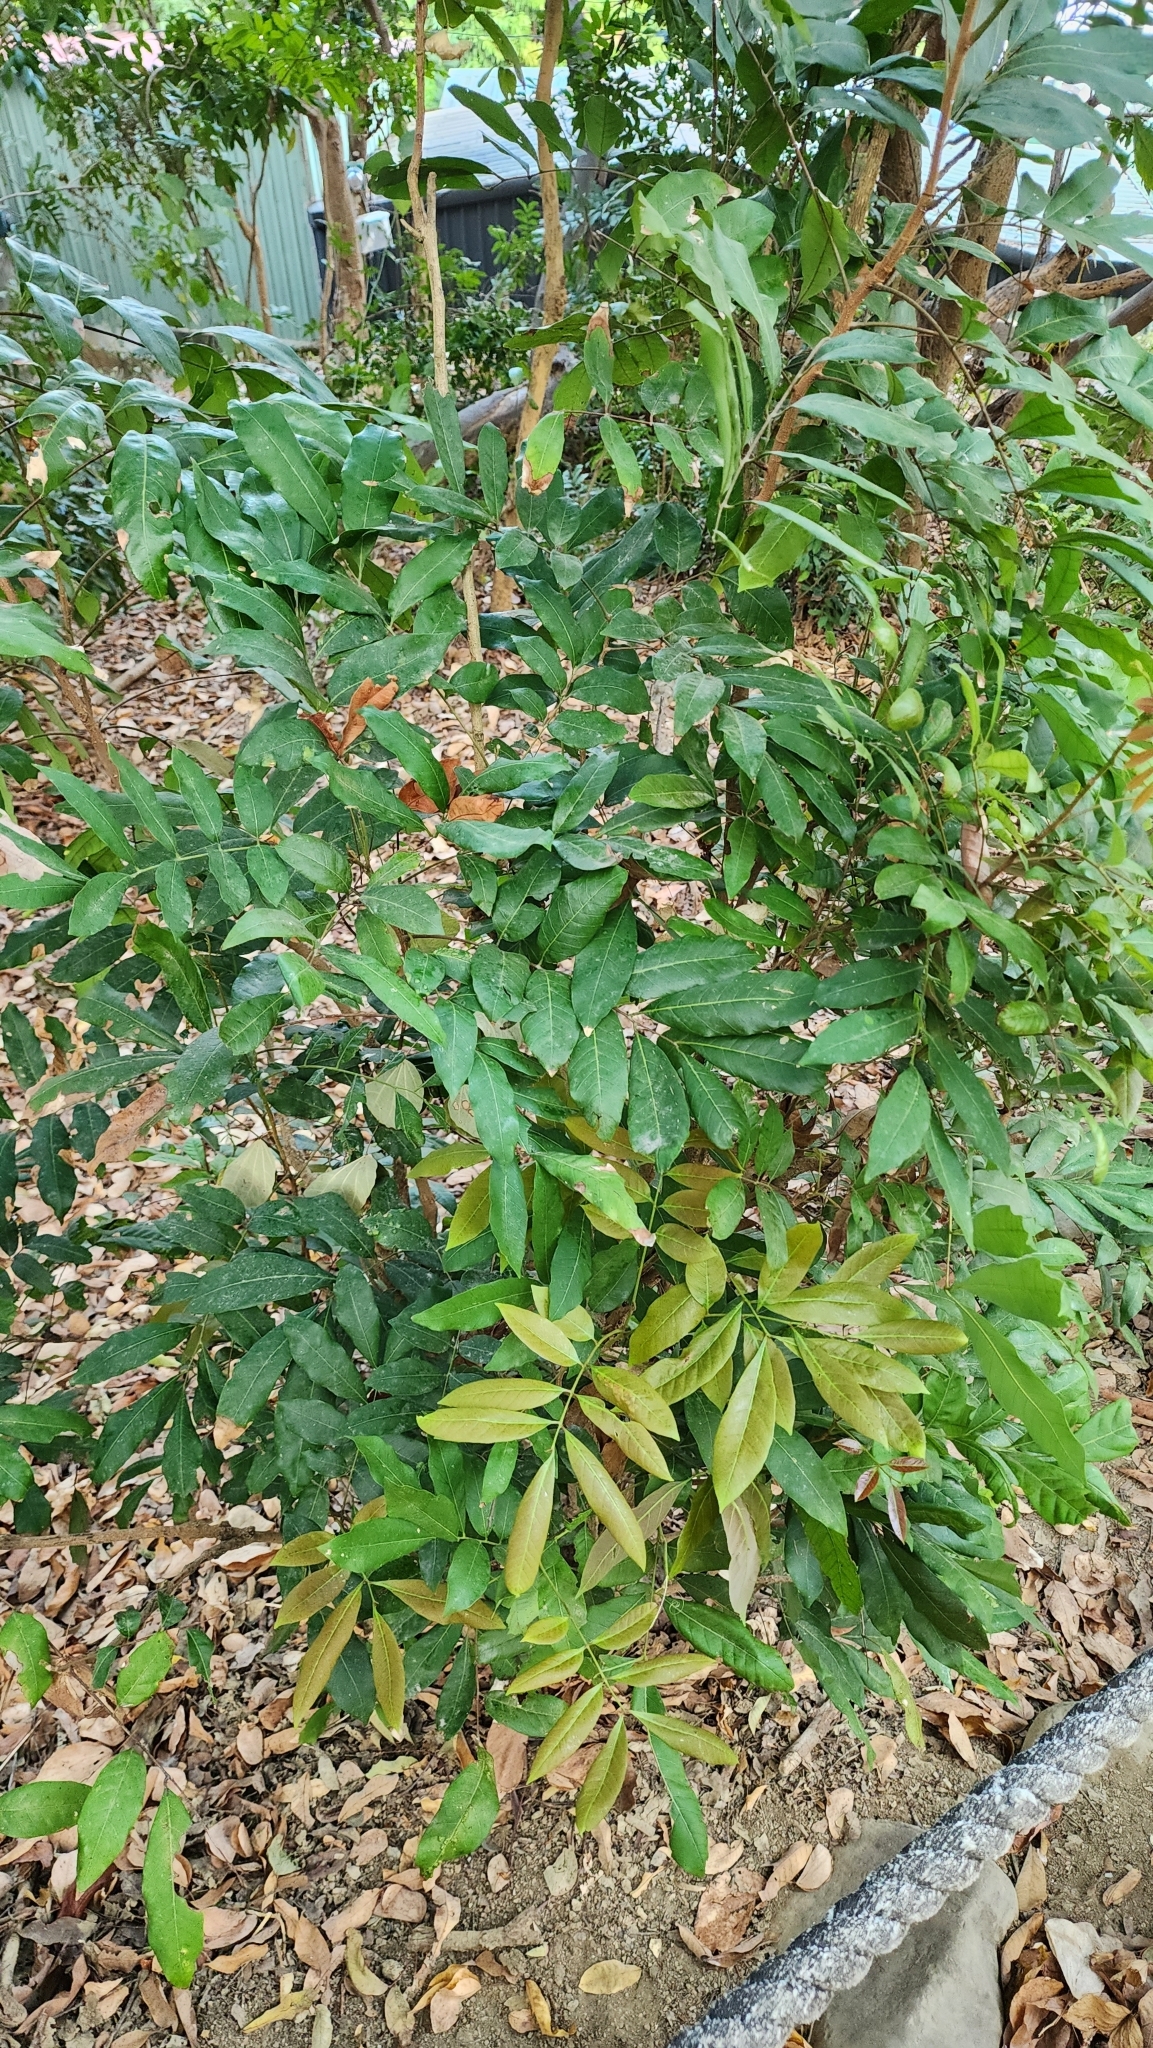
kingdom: Plantae
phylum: Tracheophyta
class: Magnoliopsida
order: Sapindales
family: Sapindaceae
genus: Dimocarpus
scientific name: Dimocarpus longan
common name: Longan
